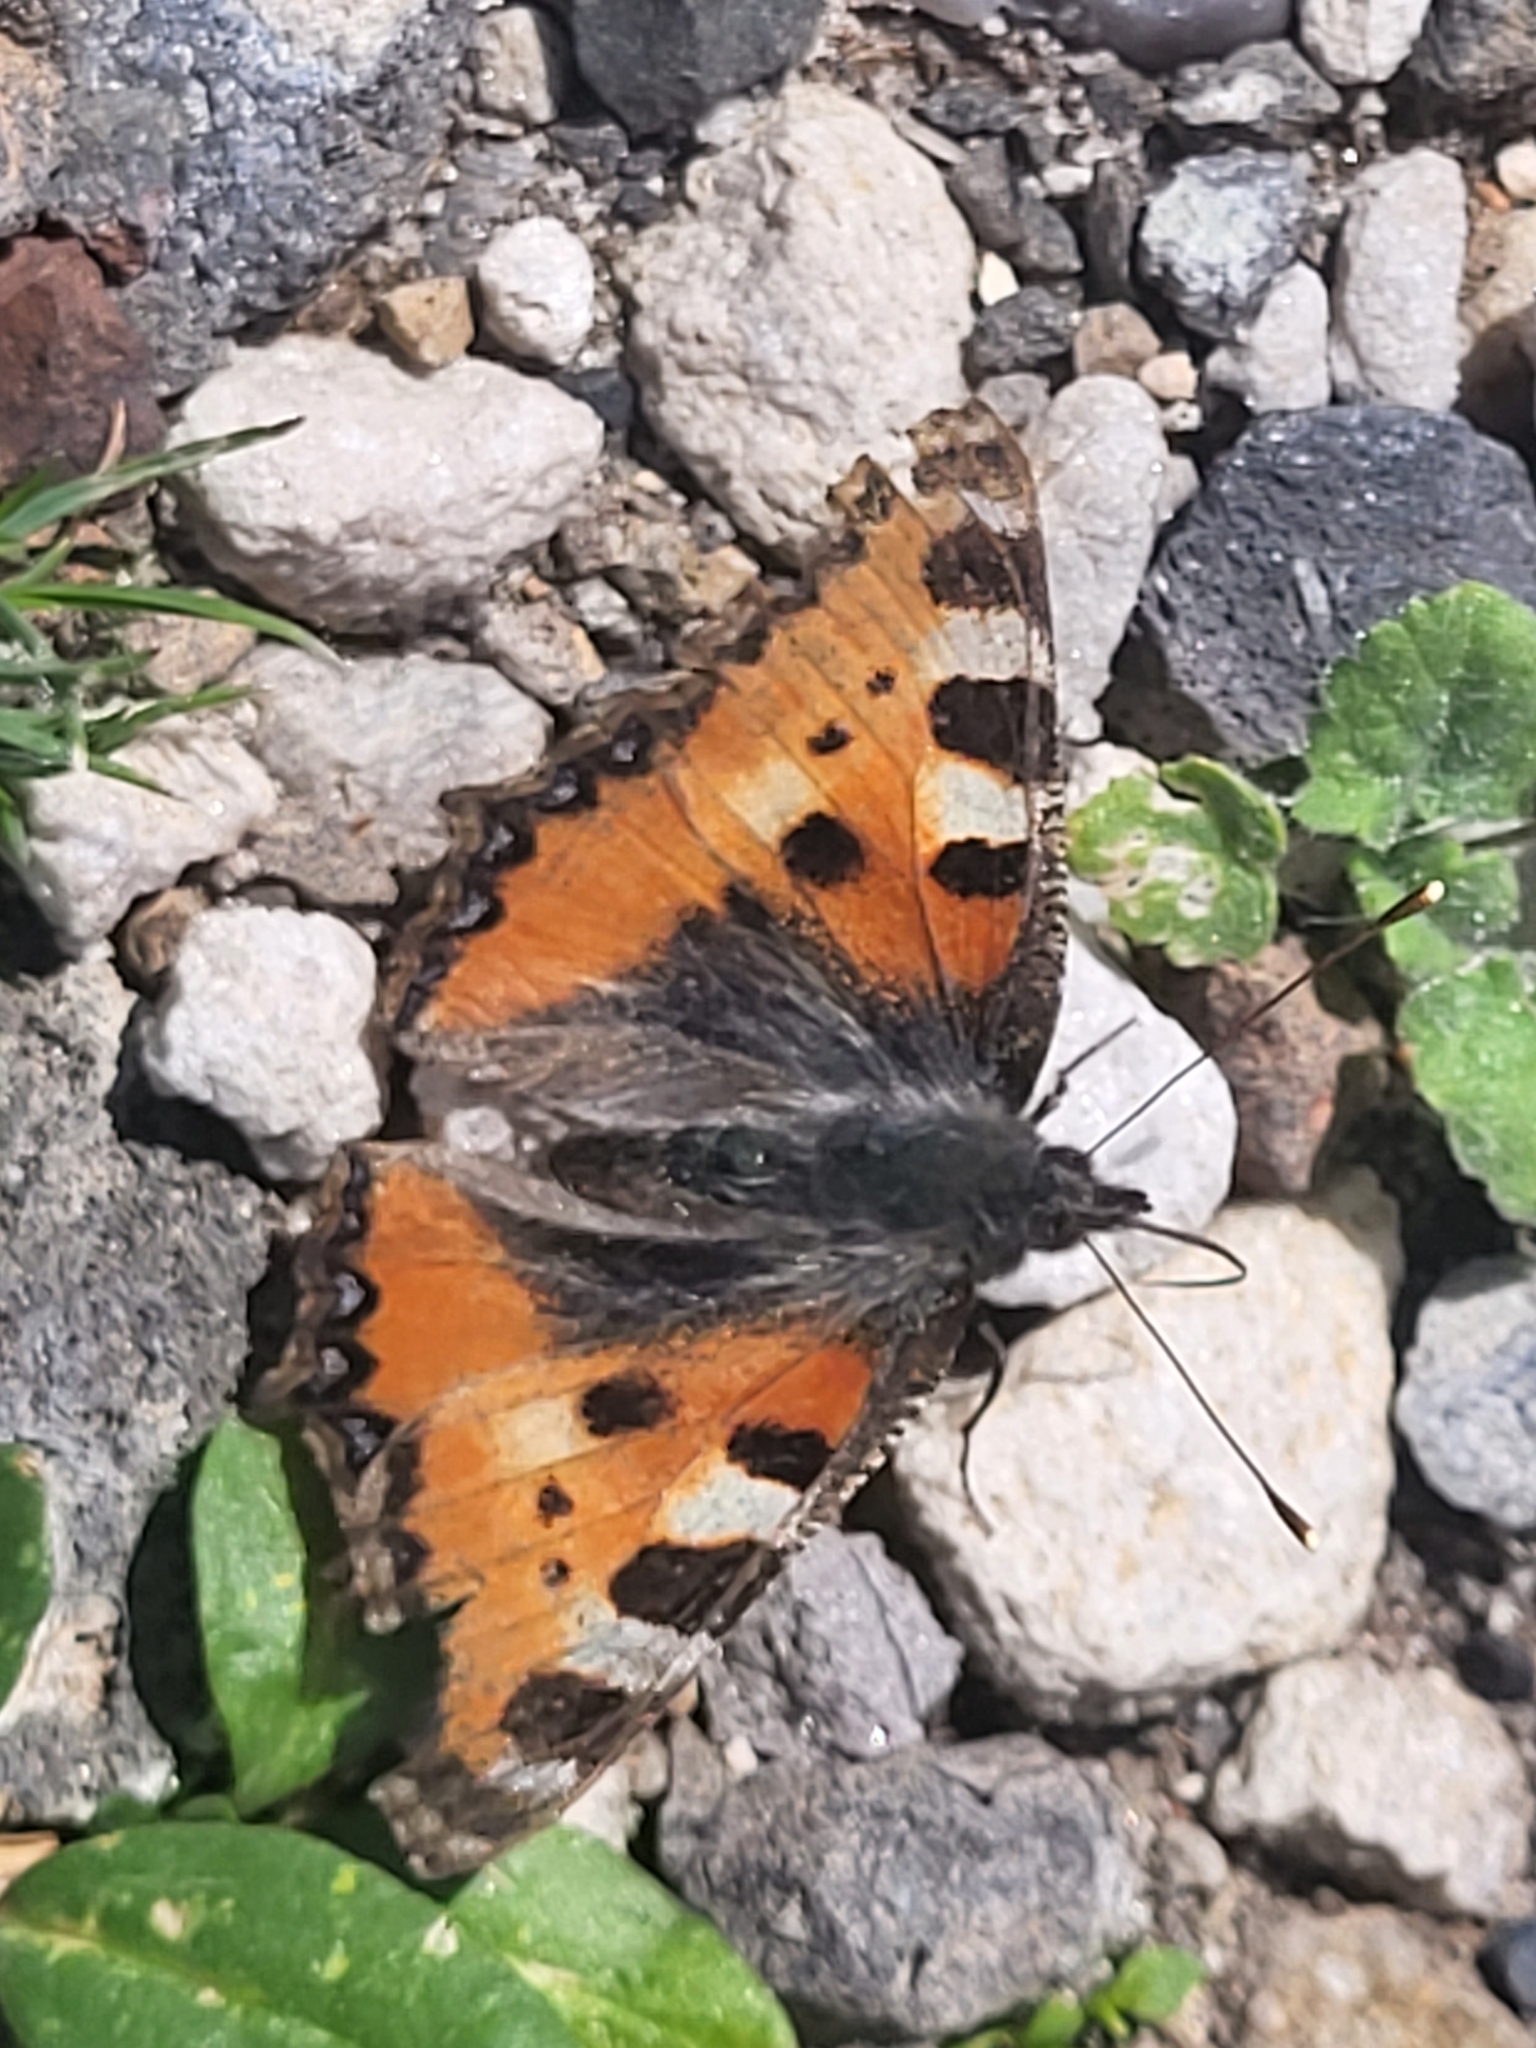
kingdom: Animalia
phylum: Arthropoda
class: Insecta
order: Lepidoptera
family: Nymphalidae
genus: Aglais
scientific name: Aglais urticae
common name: Small tortoiseshell
